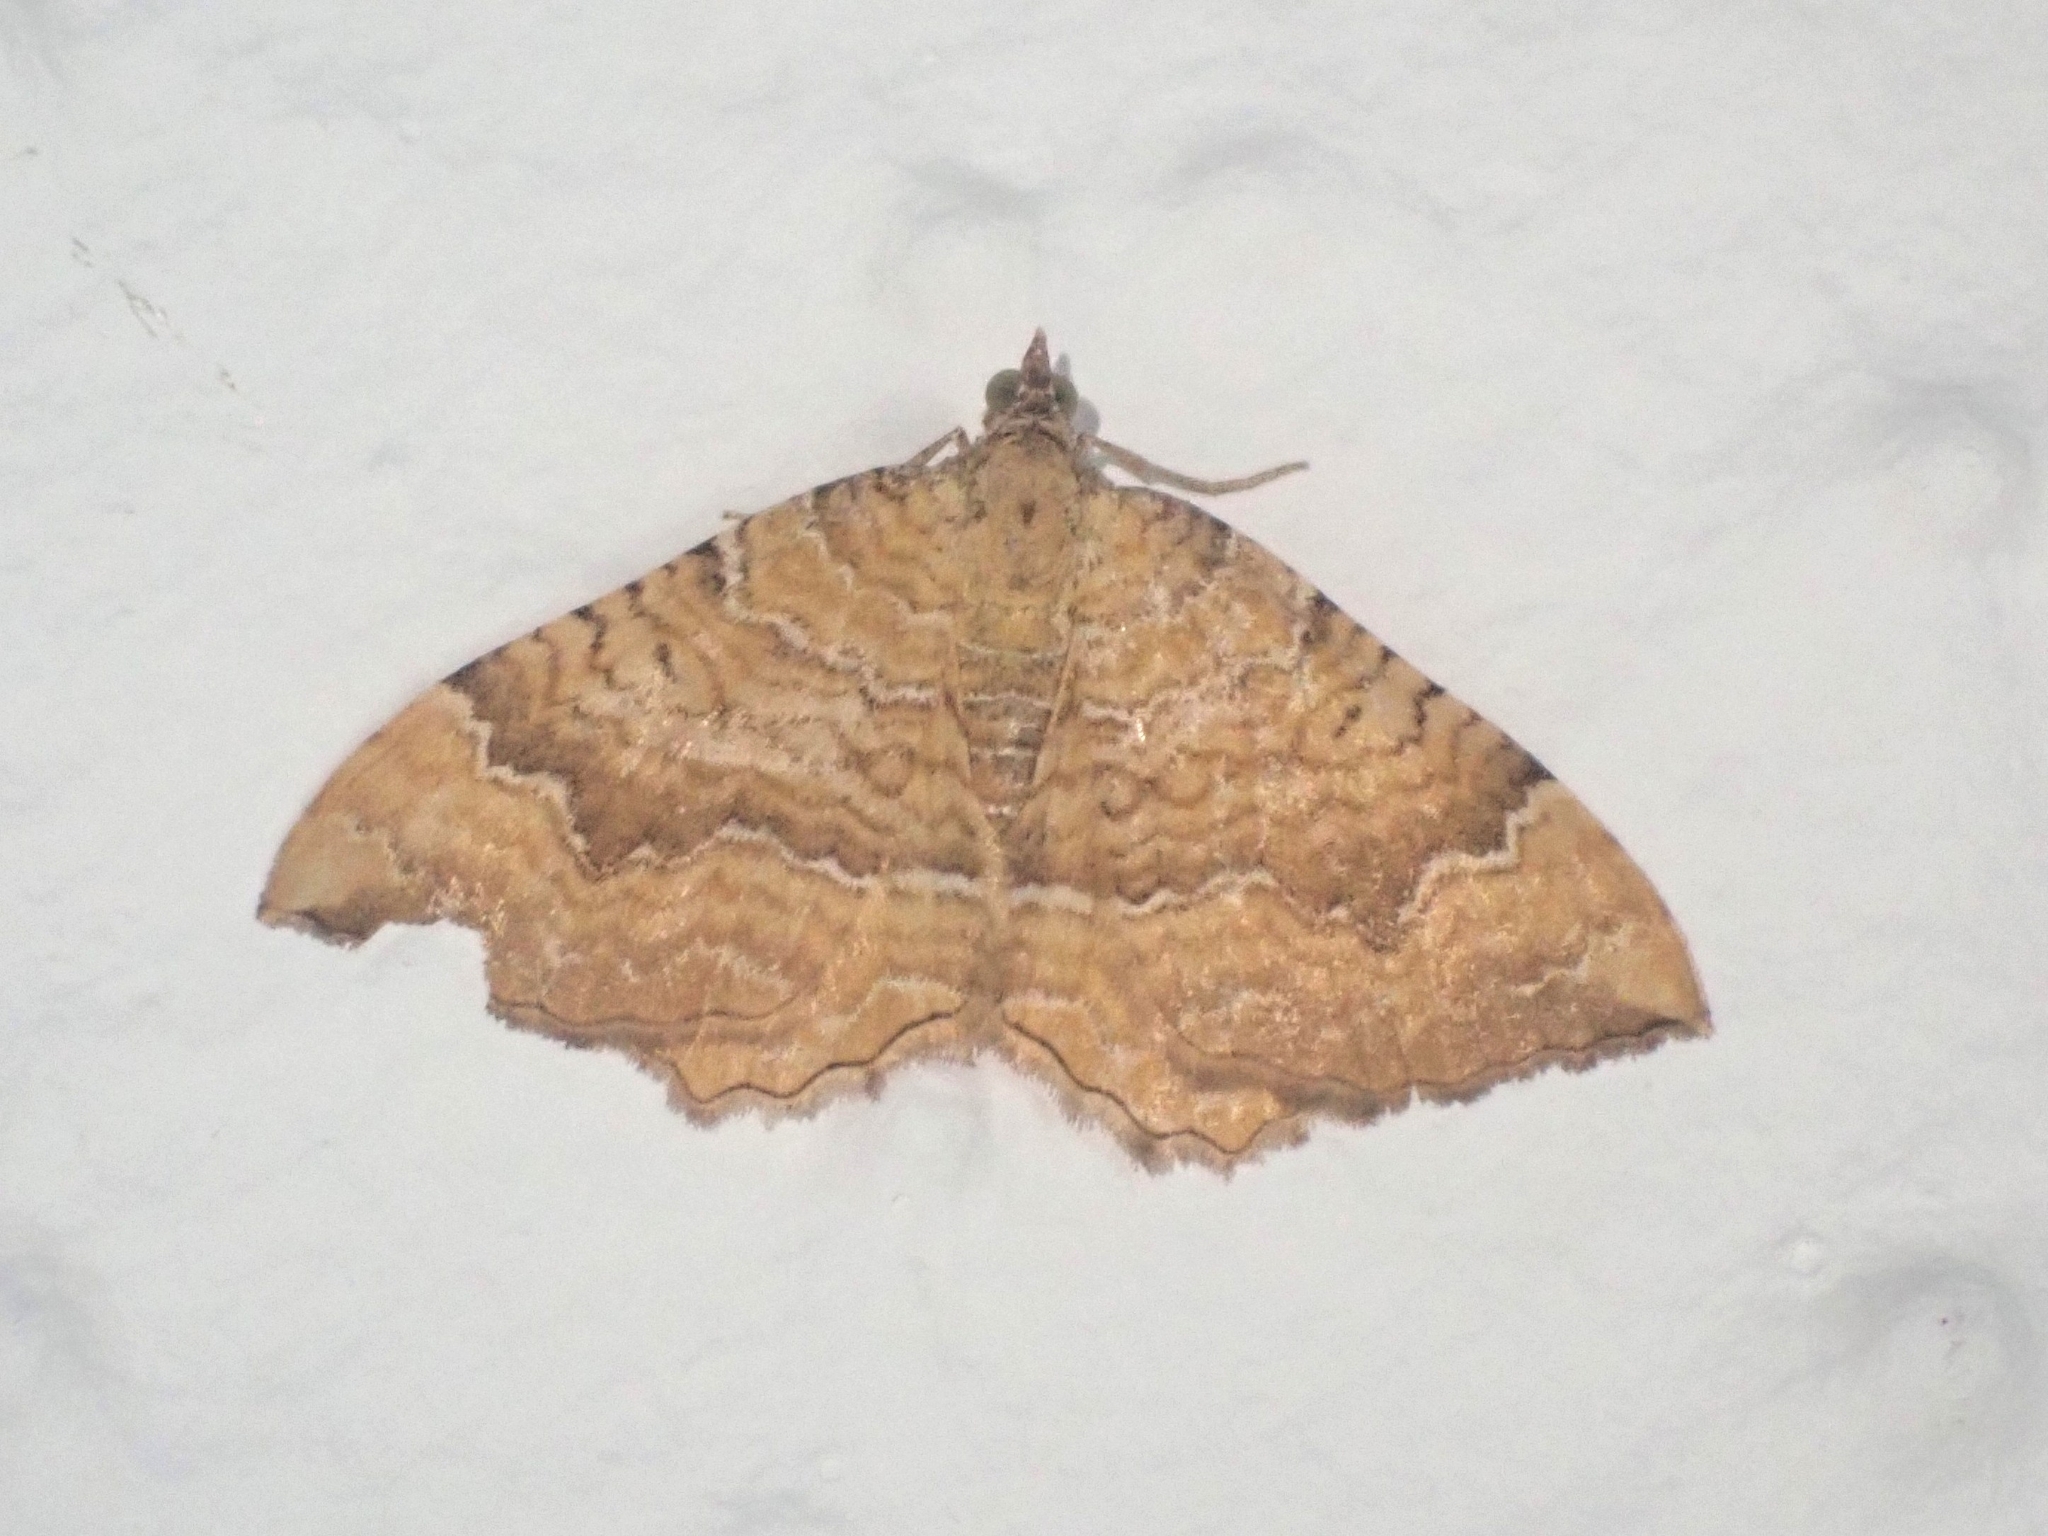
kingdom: Animalia
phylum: Arthropoda
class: Insecta
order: Lepidoptera
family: Geometridae
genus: Camptogramma
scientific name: Camptogramma bilineata
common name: Yellow shell
